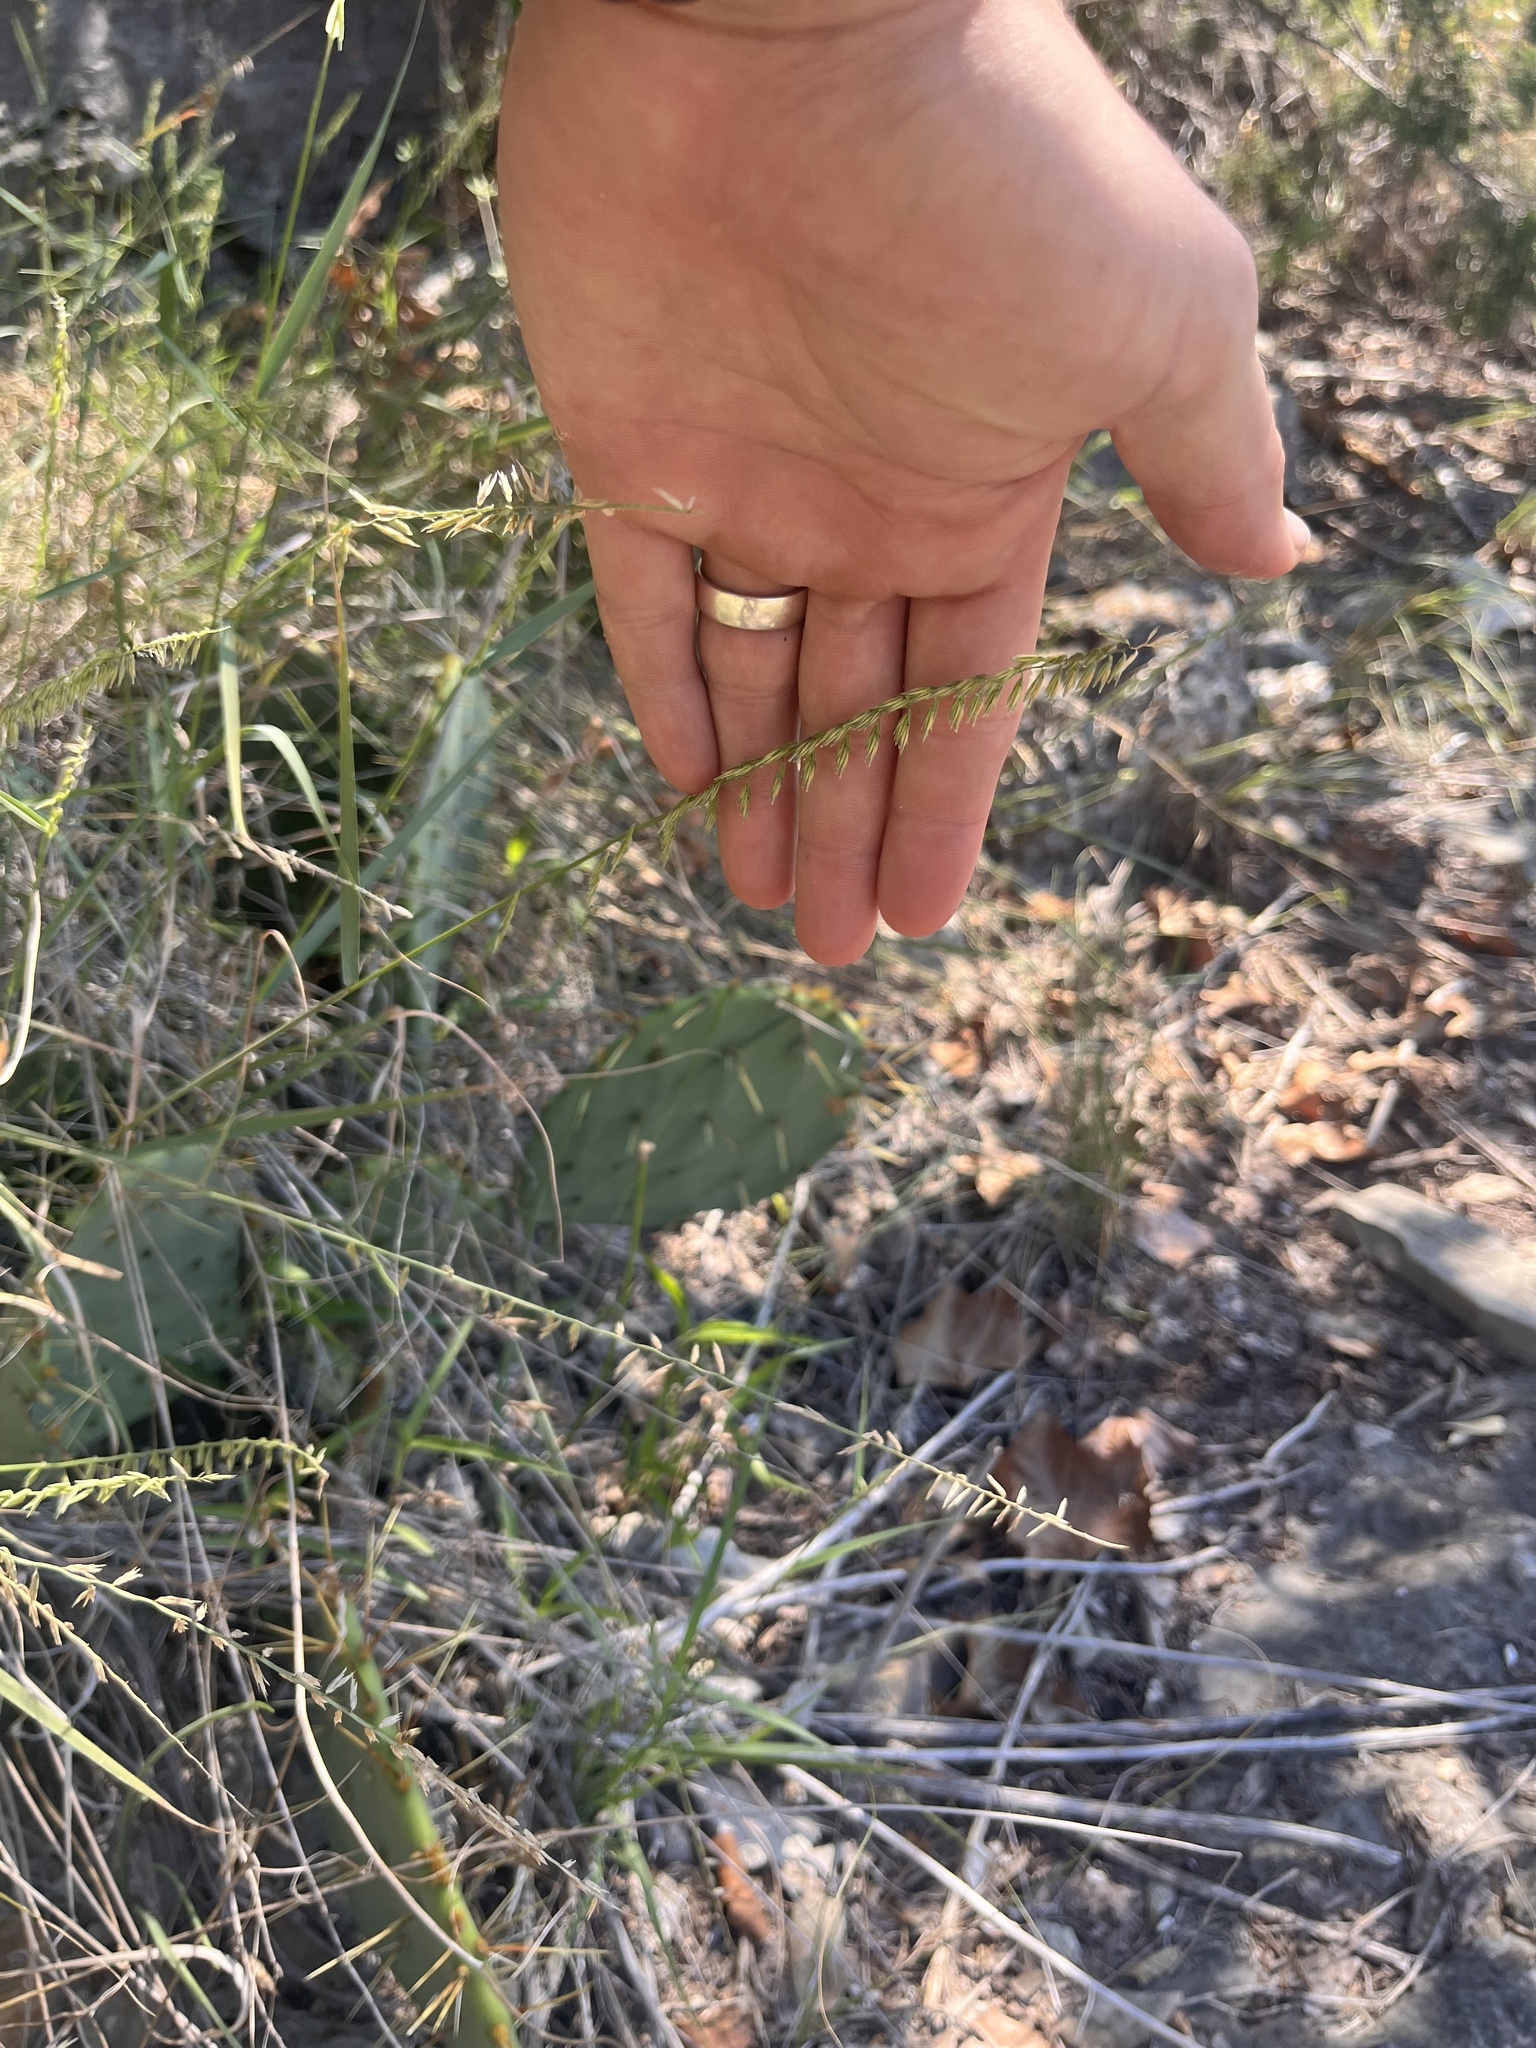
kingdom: Plantae
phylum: Tracheophyta
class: Liliopsida
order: Poales
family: Poaceae
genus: Bouteloua
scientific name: Bouteloua curtipendula
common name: Side-oats grama
